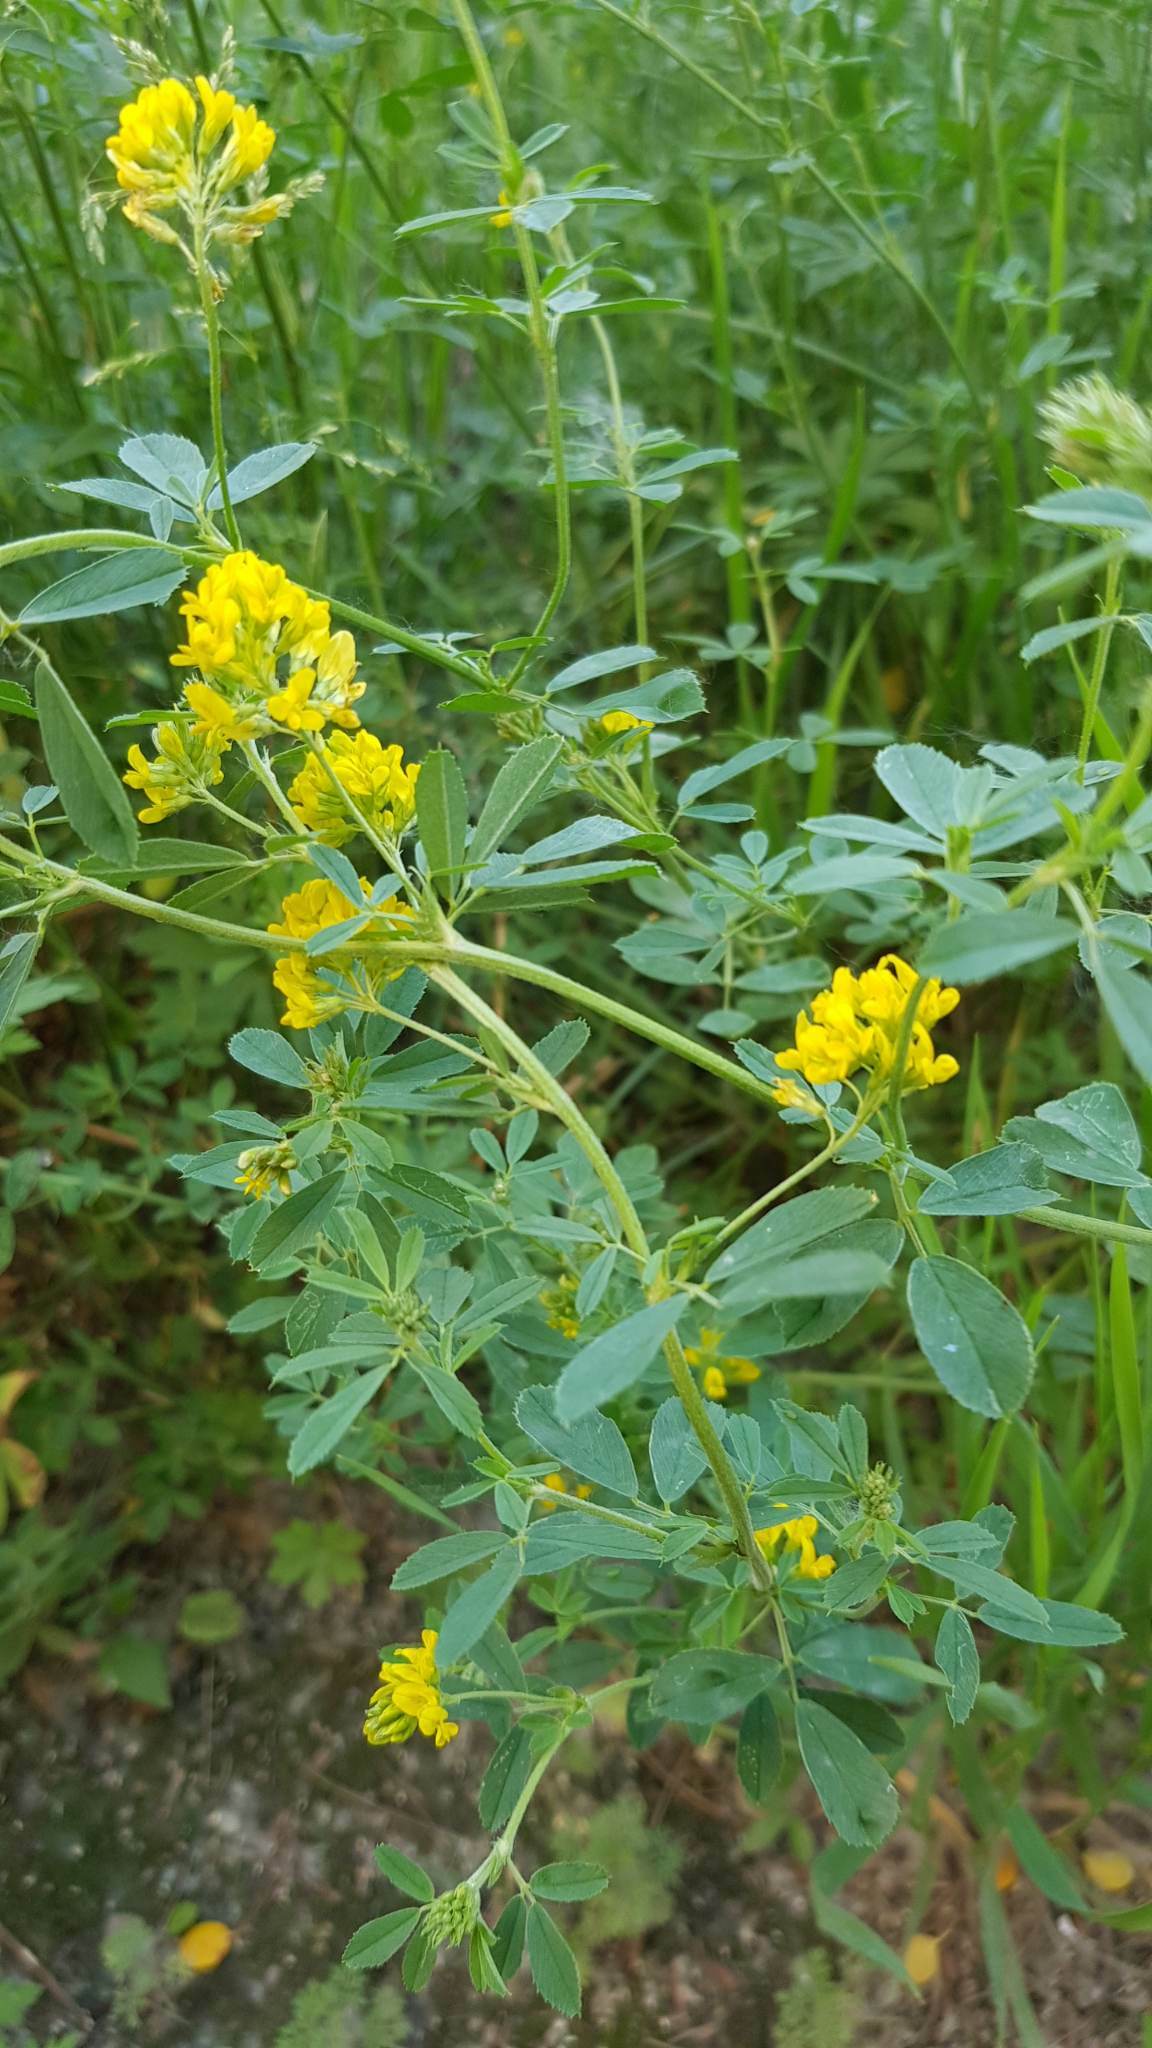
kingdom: Plantae
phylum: Tracheophyta
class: Magnoliopsida
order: Fabales
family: Fabaceae
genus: Medicago
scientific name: Medicago falcata
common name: Sickle medick
